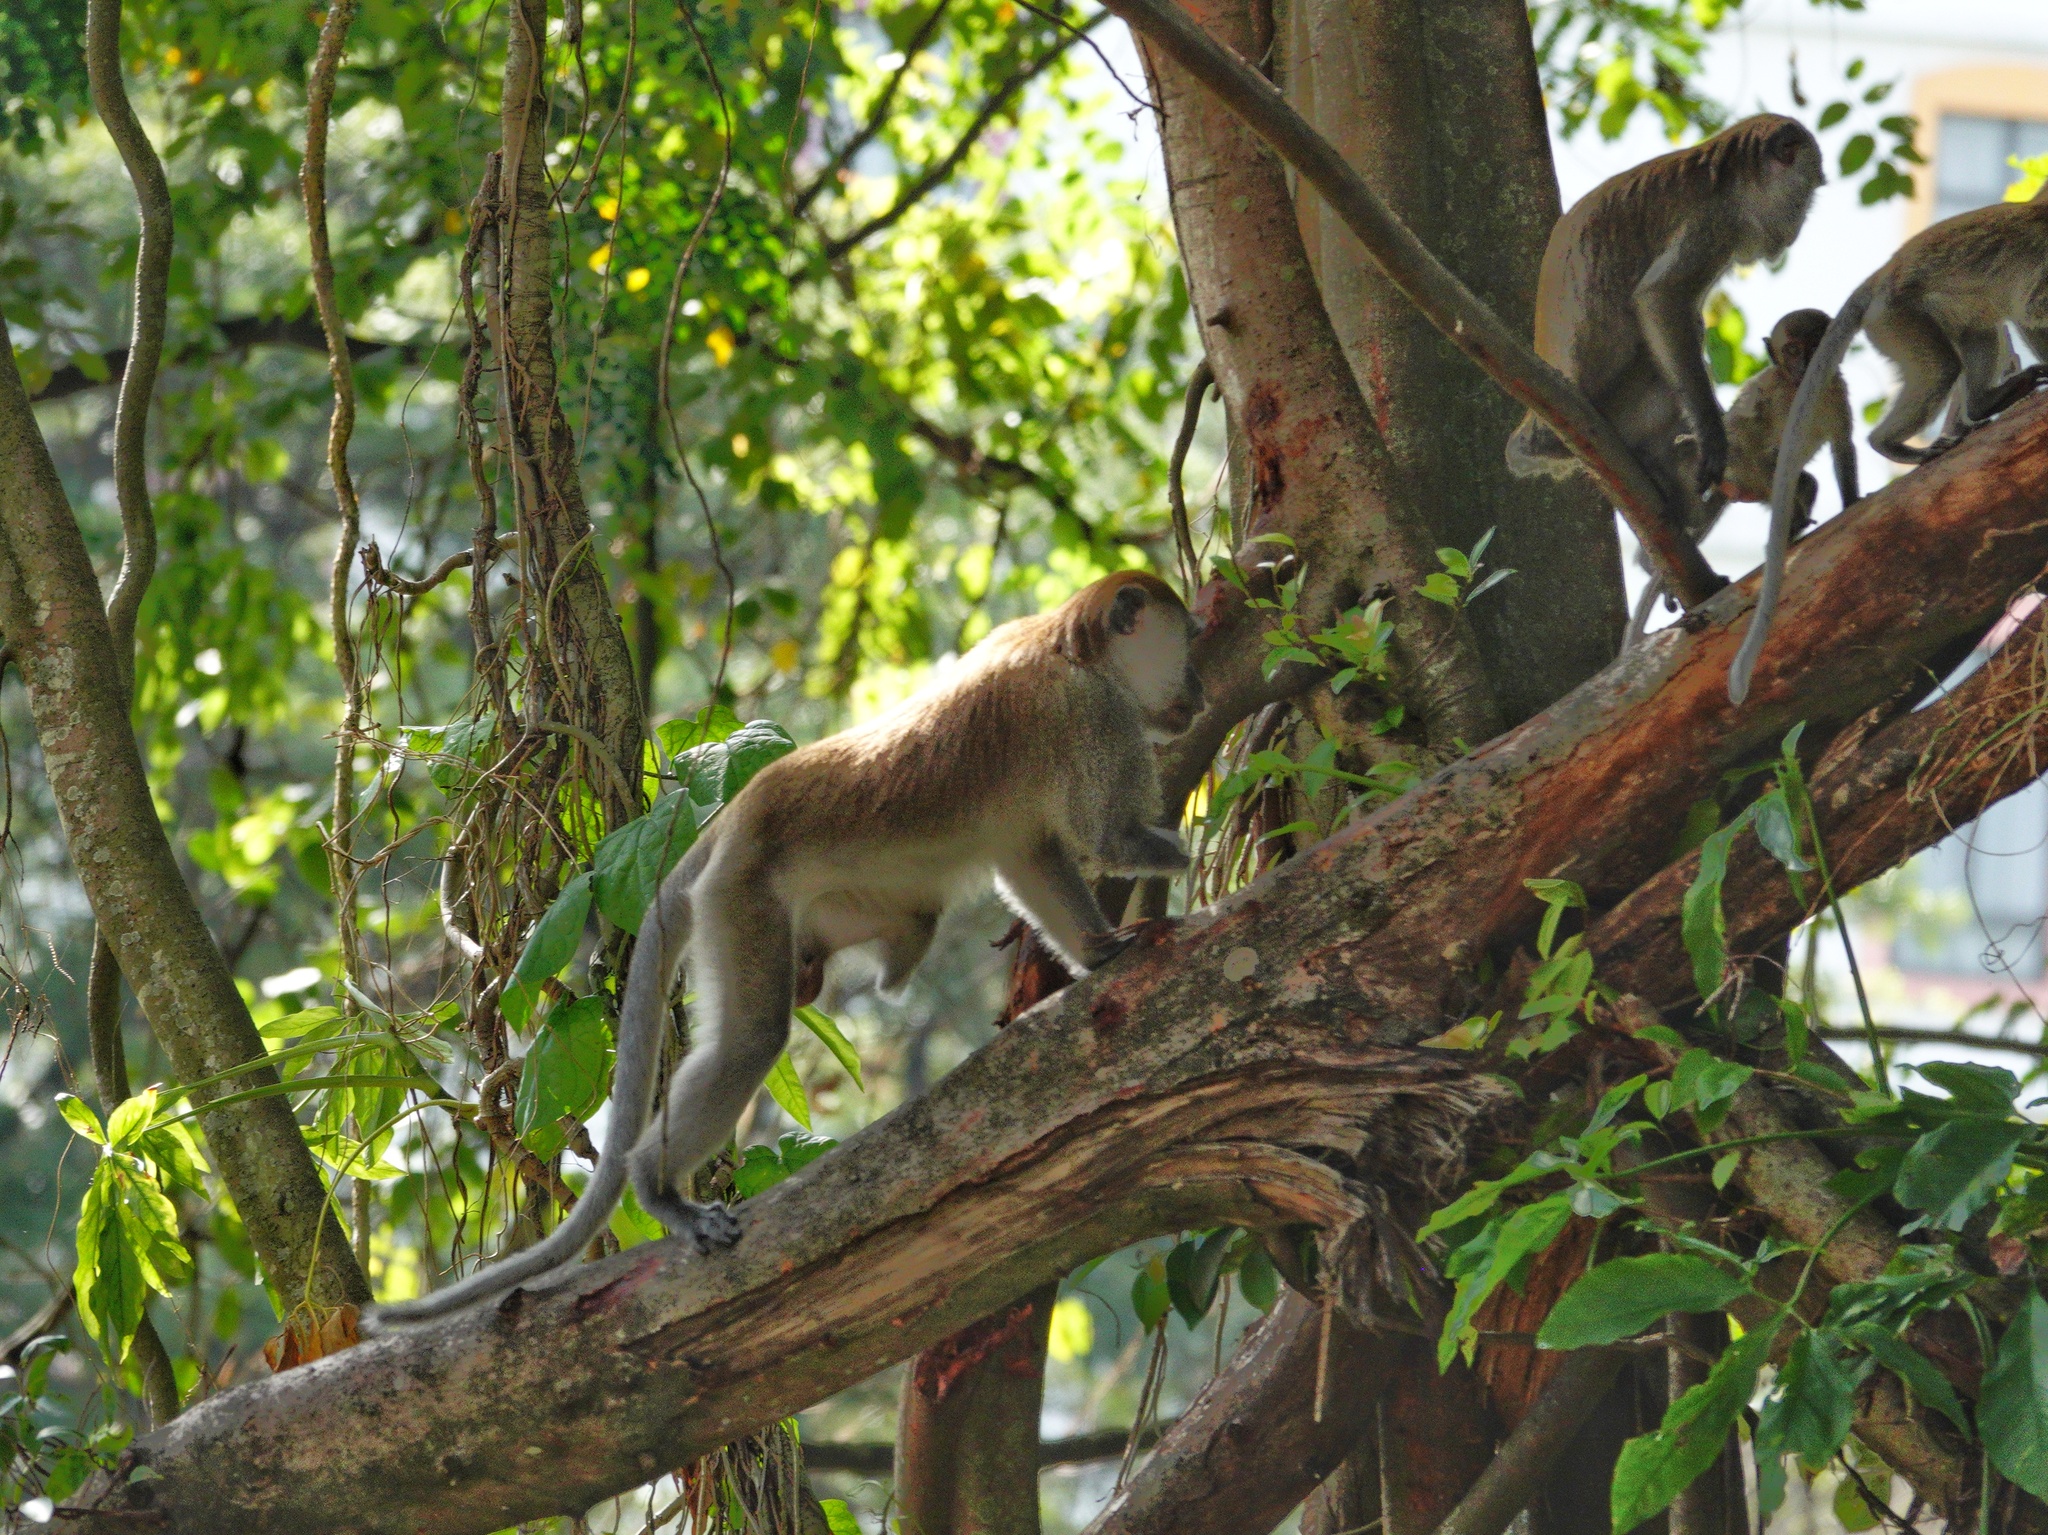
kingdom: Animalia
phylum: Chordata
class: Mammalia
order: Primates
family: Cercopithecidae
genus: Macaca
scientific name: Macaca fascicularis
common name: Crab-eating macaque
